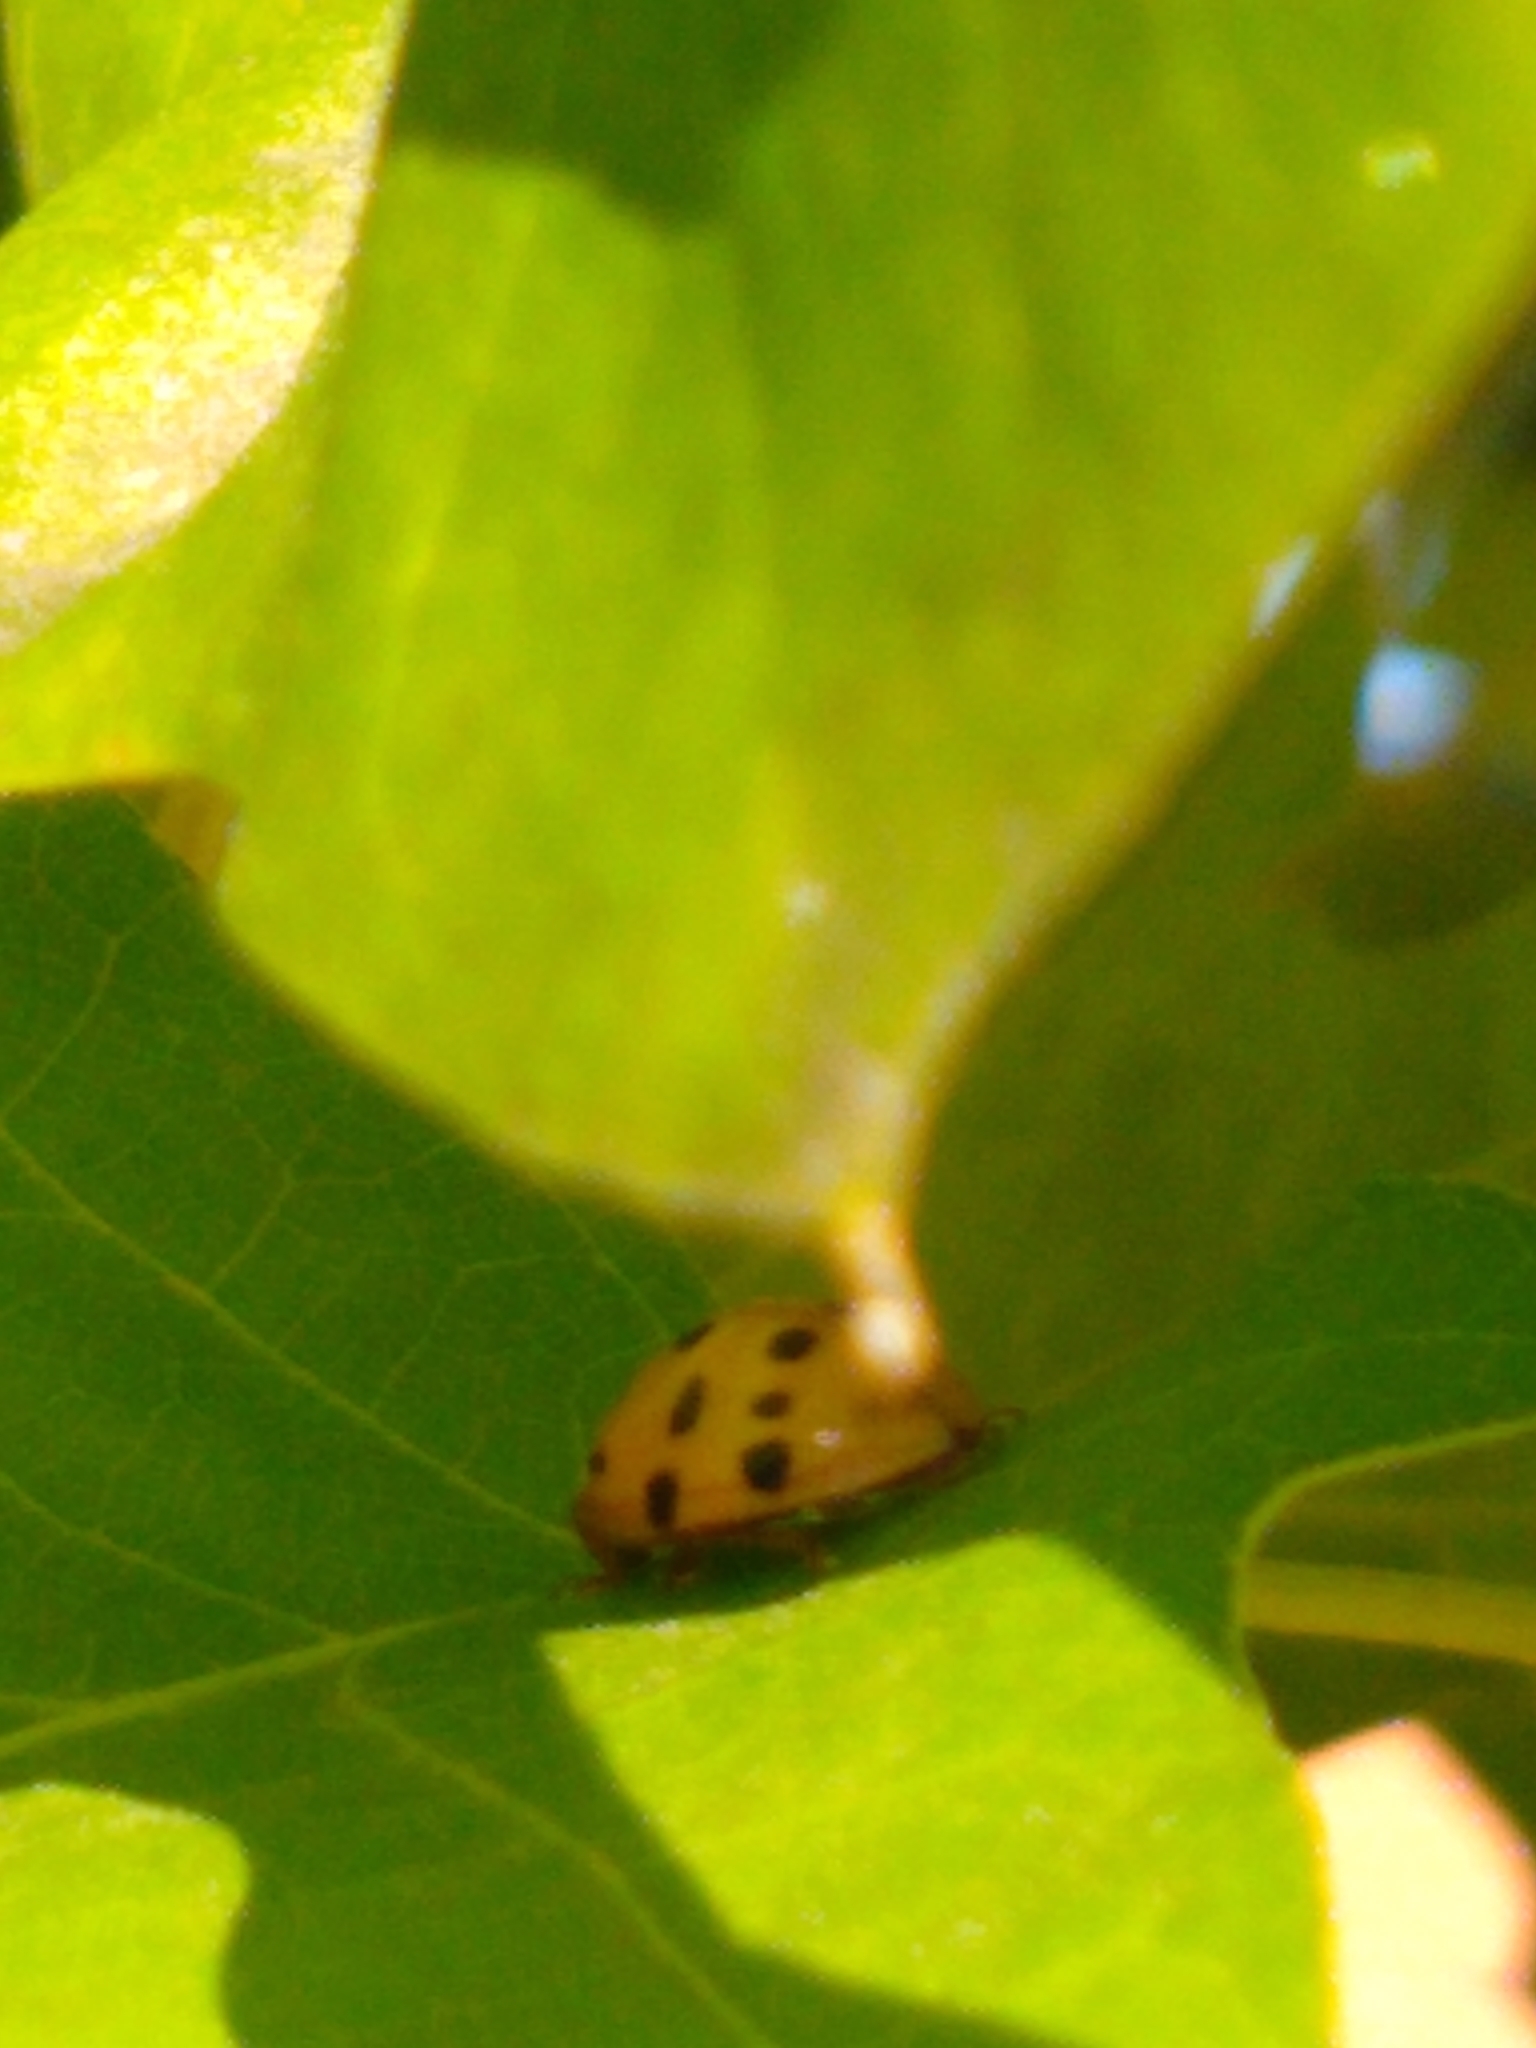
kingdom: Animalia
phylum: Arthropoda
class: Insecta
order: Coleoptera
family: Coccinellidae
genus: Harmonia
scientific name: Harmonia axyridis
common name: Harlequin ladybird
